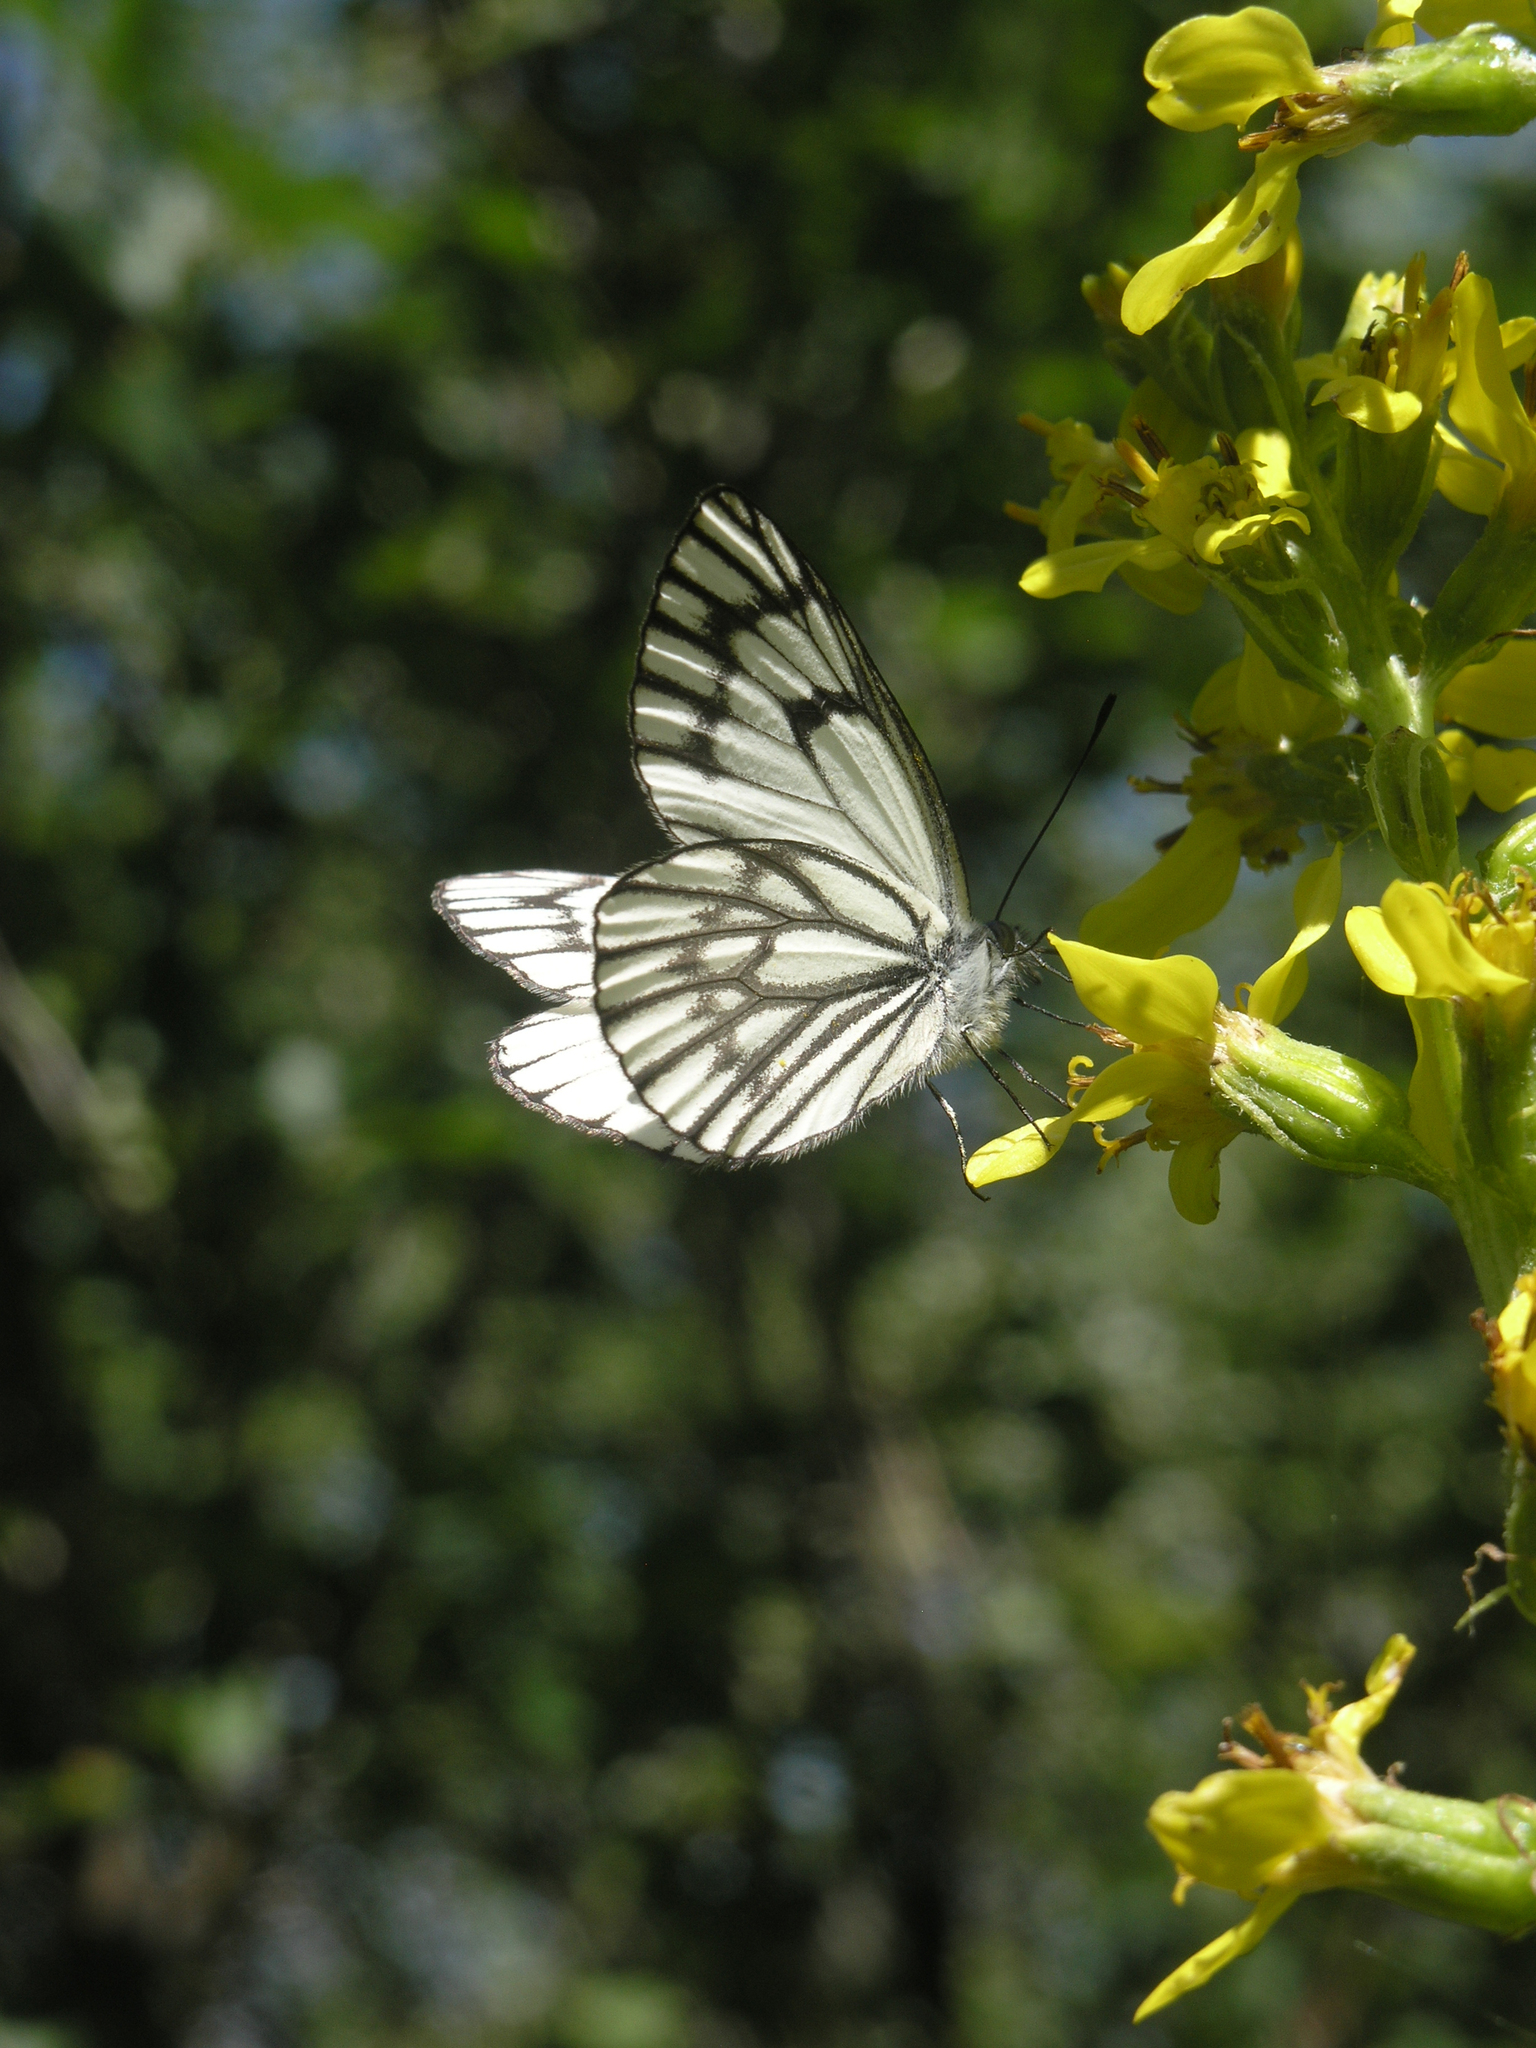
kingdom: Animalia
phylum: Arthropoda
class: Insecta
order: Lepidoptera
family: Pieridae
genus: Aporia
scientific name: Aporia leucodice
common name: Himalayan blackvein
